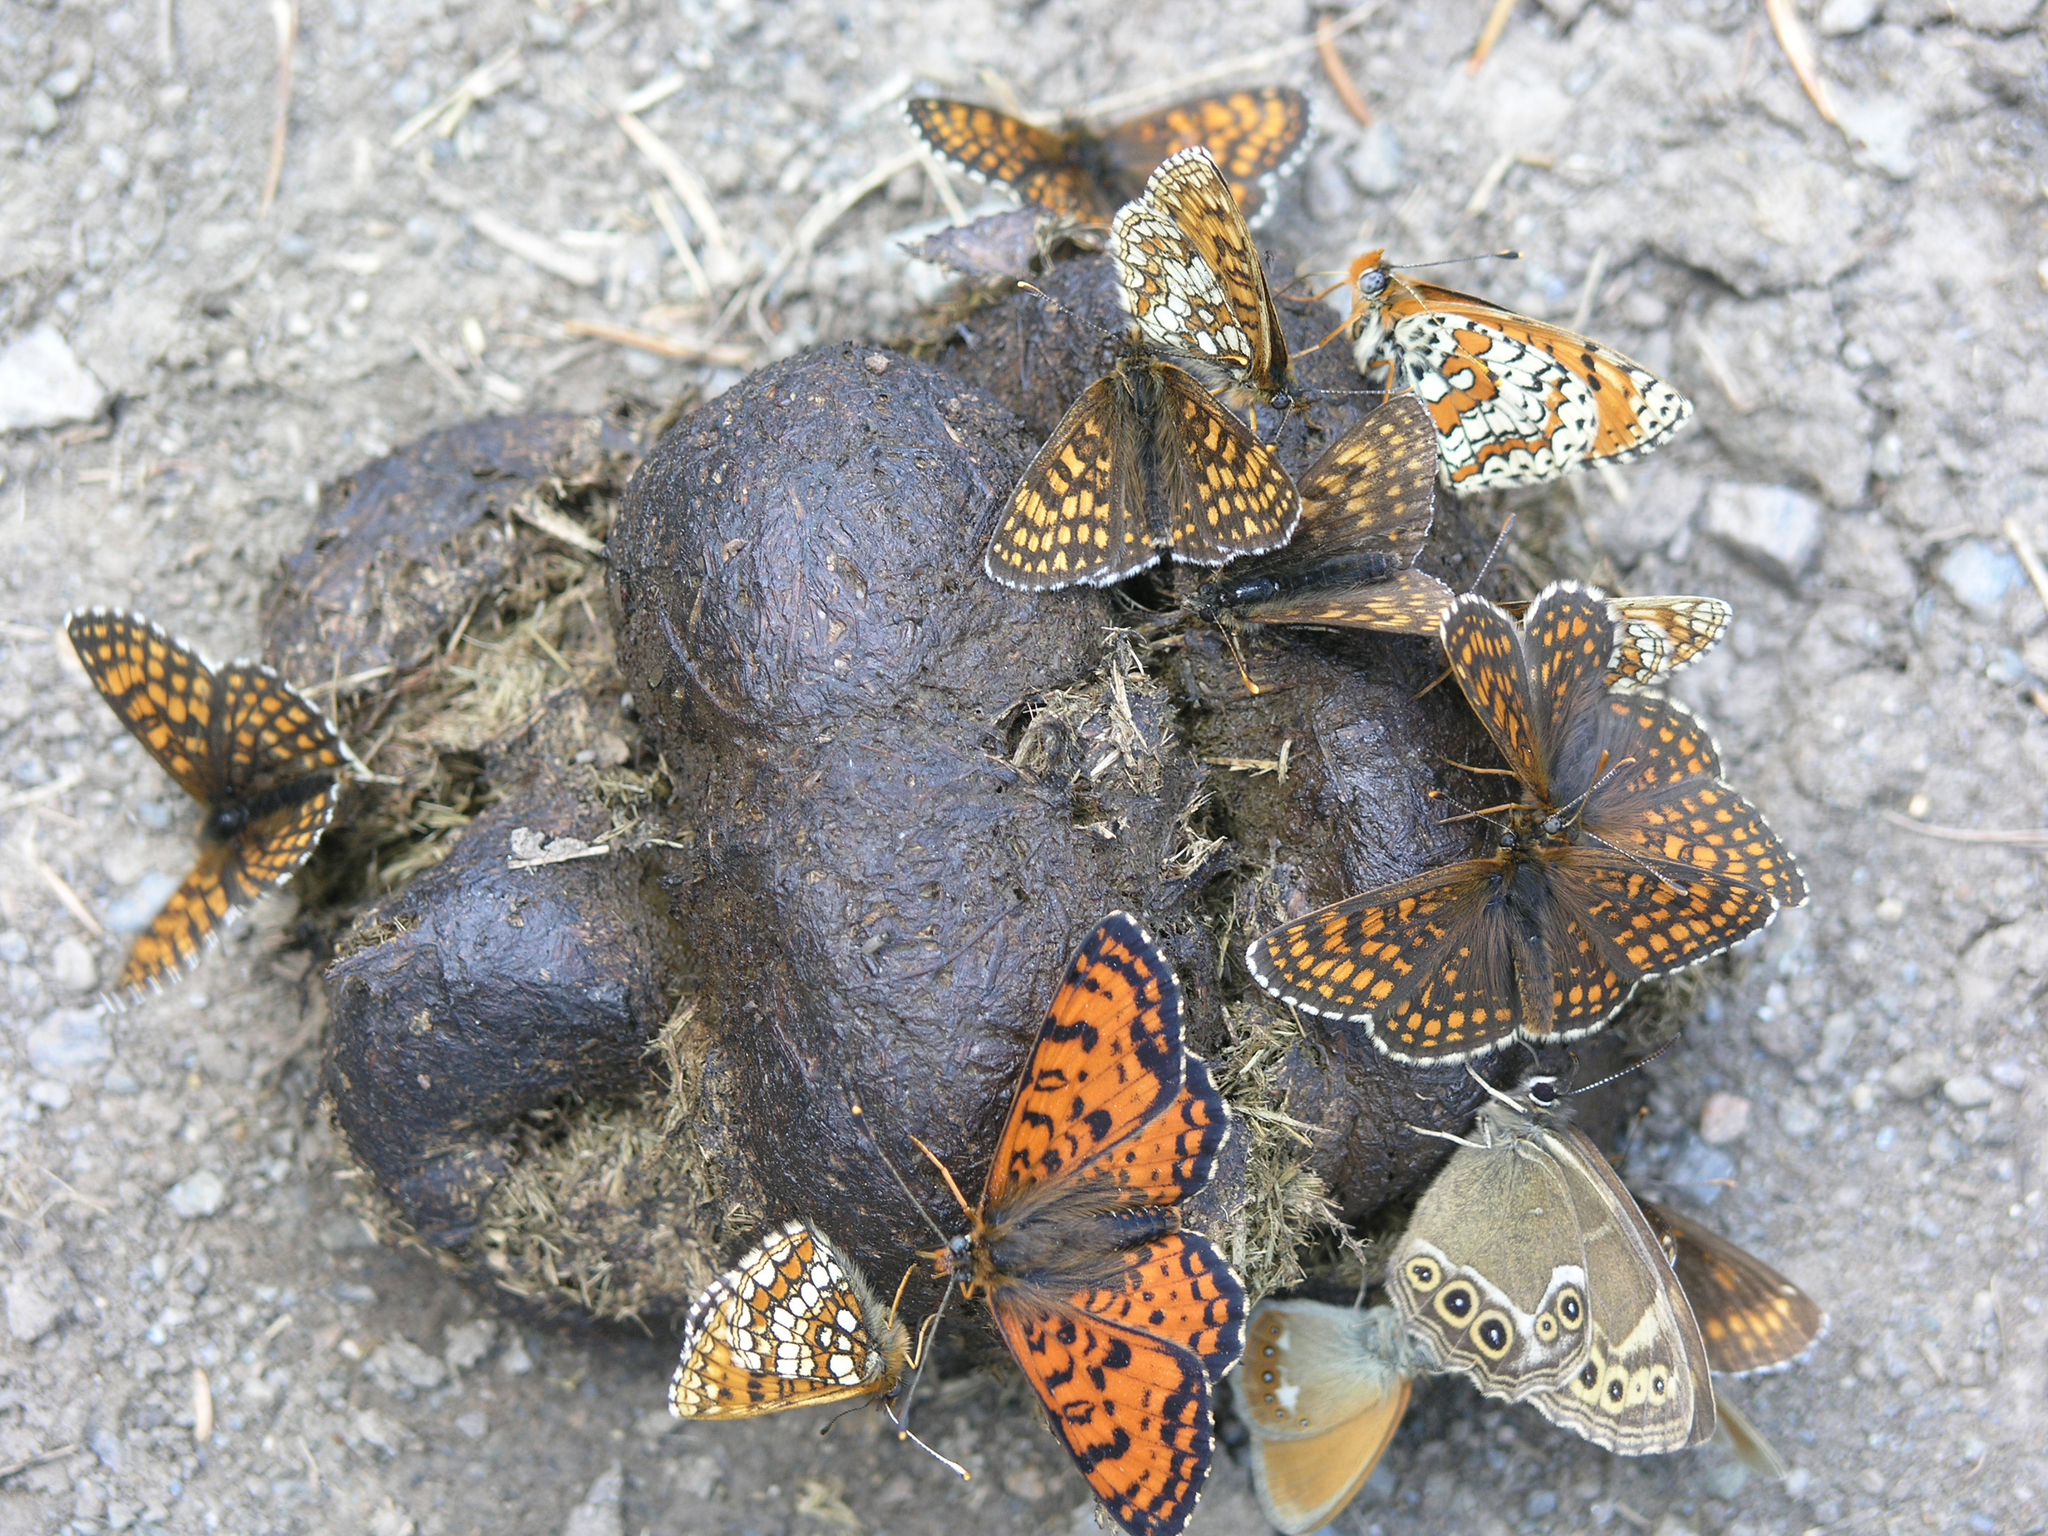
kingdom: Animalia
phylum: Arthropoda
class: Insecta
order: Lepidoptera
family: Nymphalidae
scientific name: Nymphalidae
